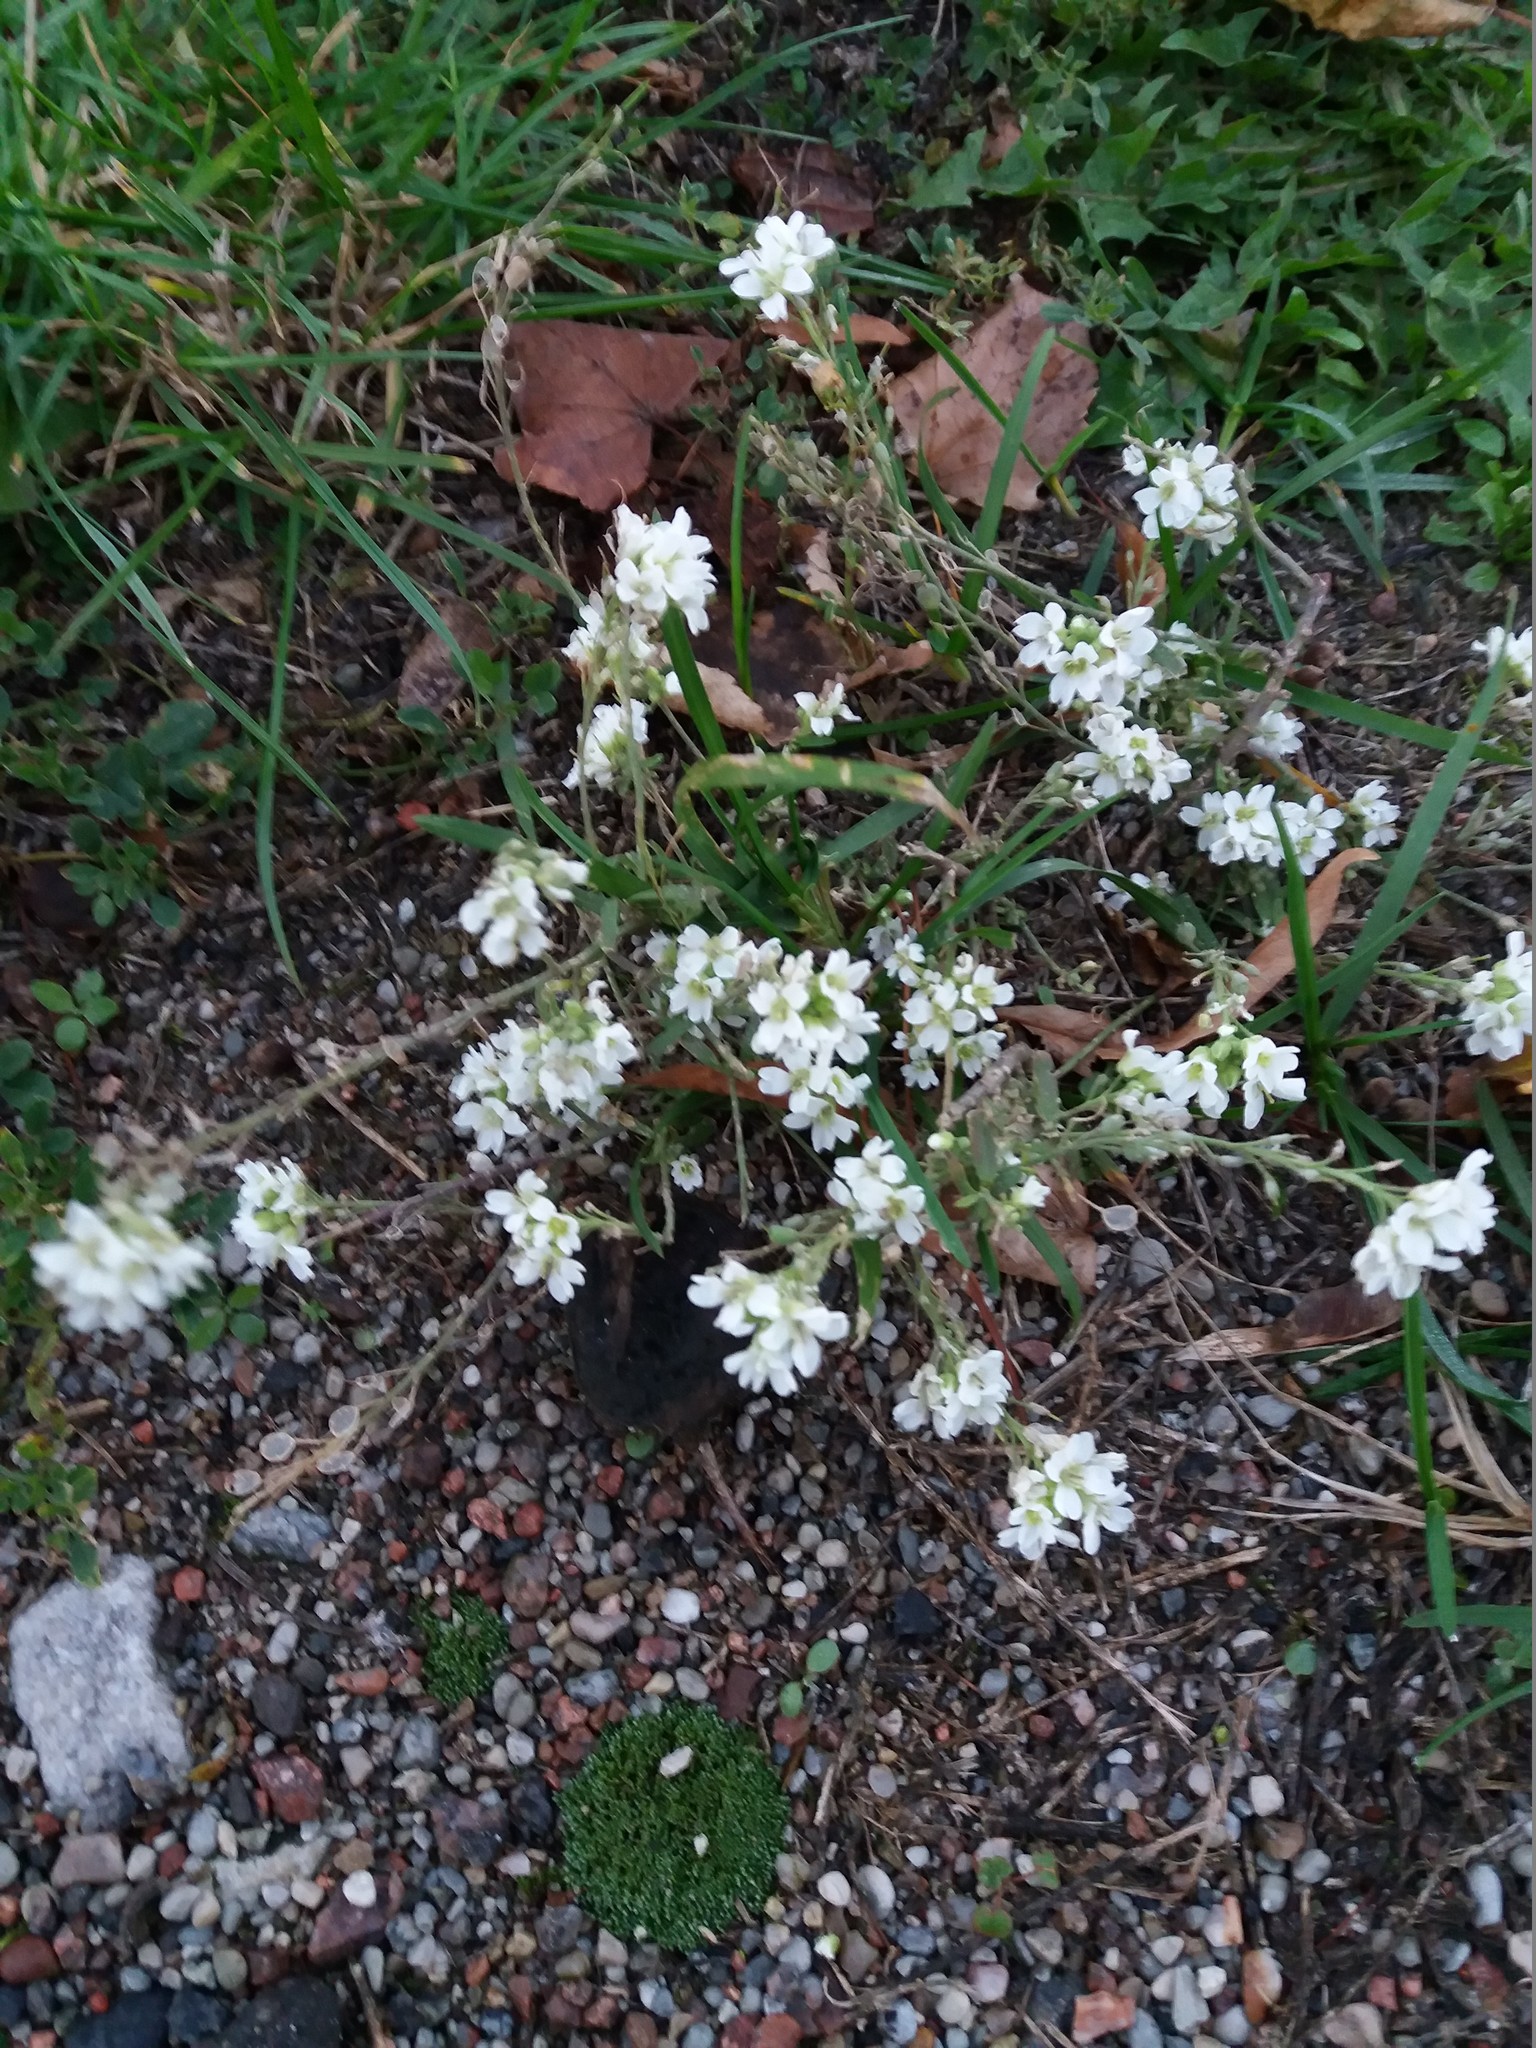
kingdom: Plantae
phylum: Tracheophyta
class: Magnoliopsida
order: Brassicales
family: Brassicaceae
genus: Berteroa
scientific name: Berteroa incana
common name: Hoary alison
